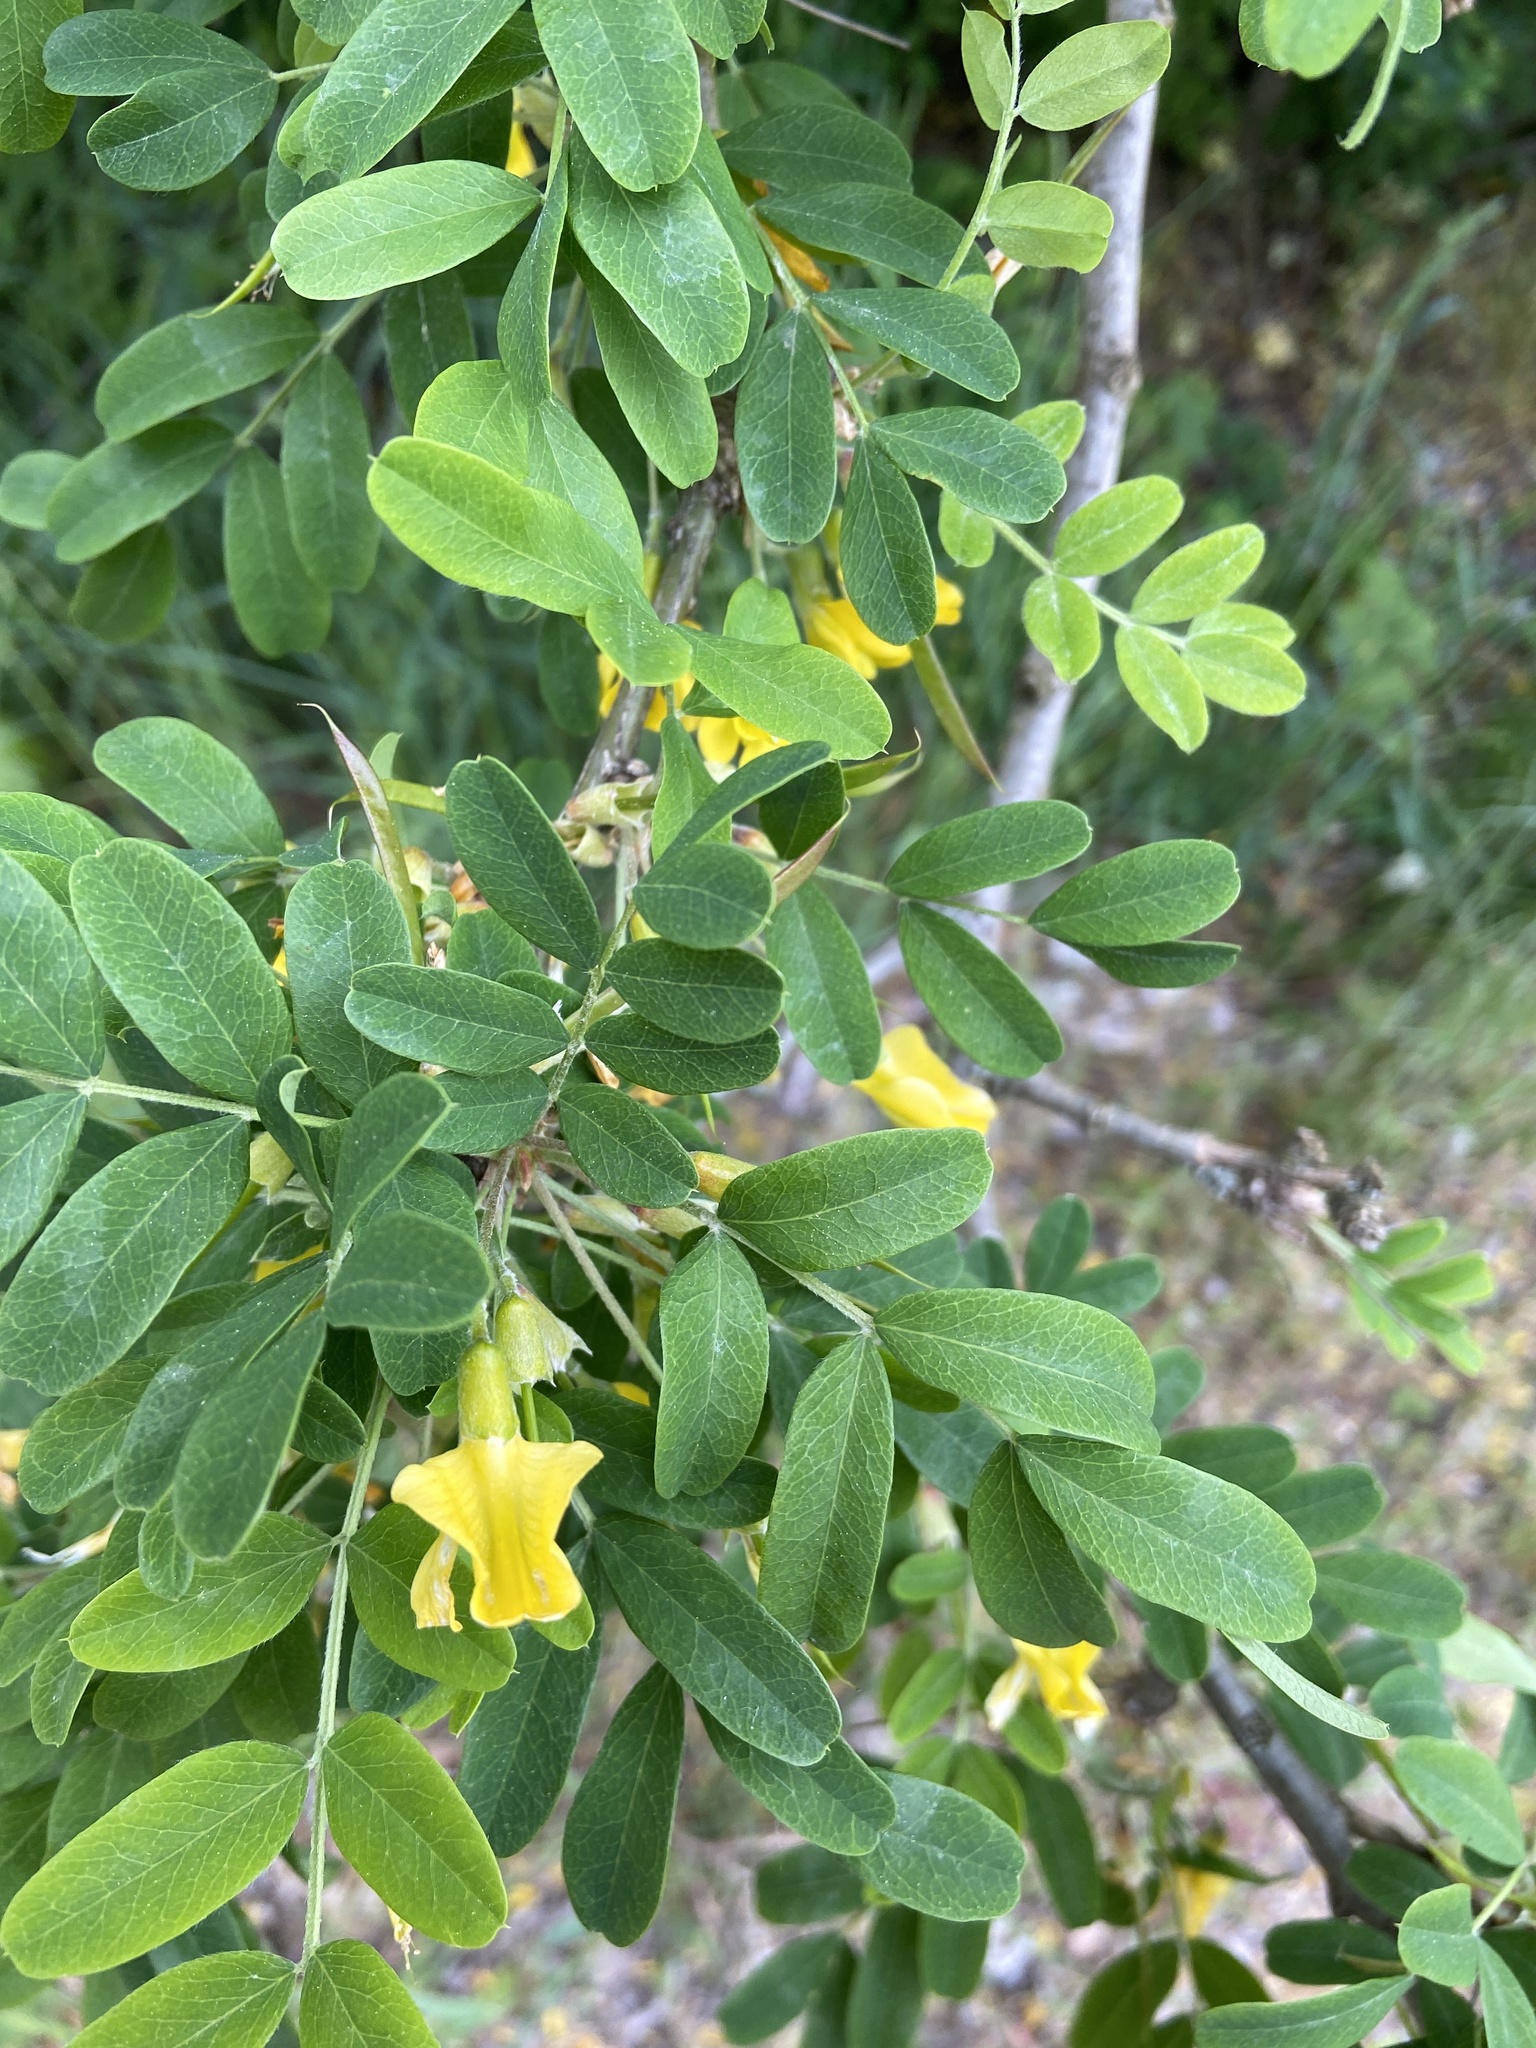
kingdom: Plantae
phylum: Tracheophyta
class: Magnoliopsida
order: Fabales
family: Fabaceae
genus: Caragana
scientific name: Caragana arborescens
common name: Siberian peashrub
